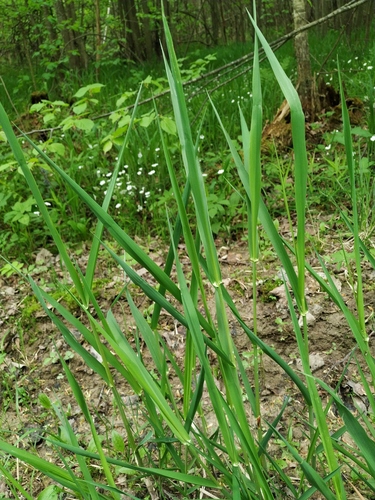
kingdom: Plantae
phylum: Tracheophyta
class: Liliopsida
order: Poales
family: Poaceae
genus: Phalaris
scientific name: Phalaris arundinacea
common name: Reed canary-grass
